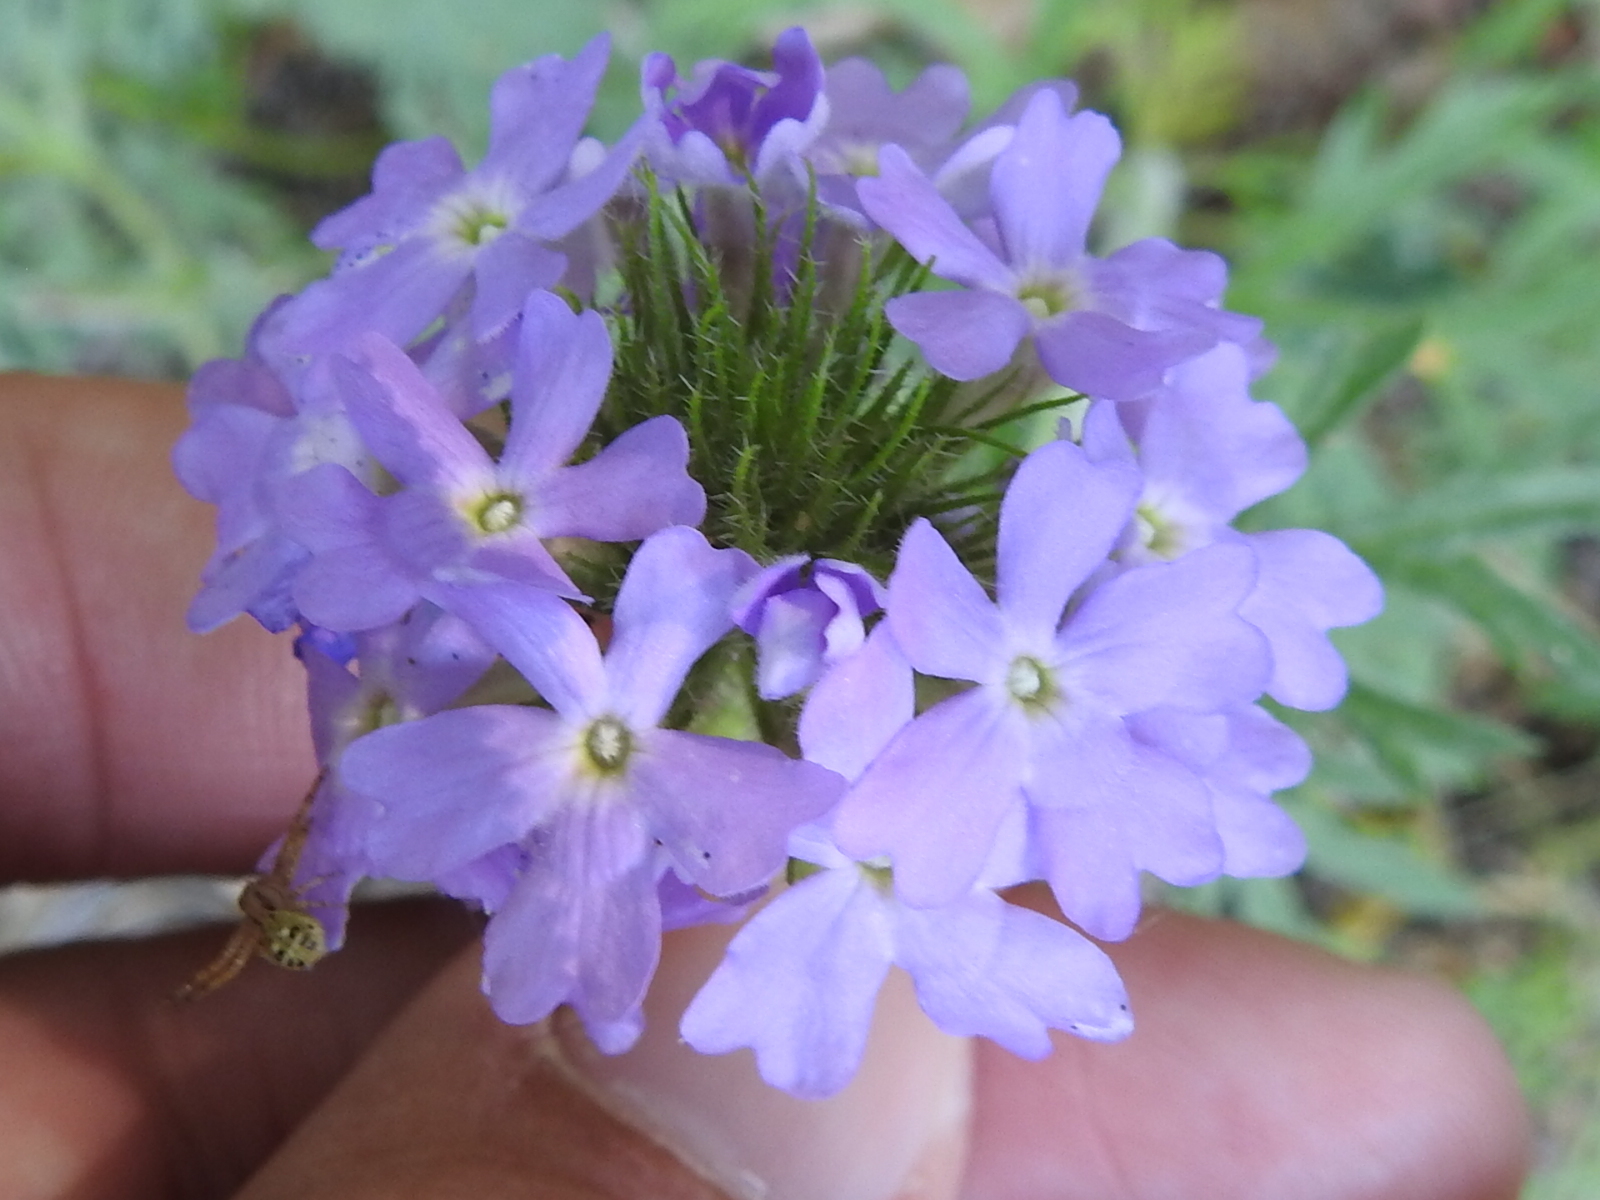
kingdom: Plantae
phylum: Tracheophyta
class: Magnoliopsida
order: Lamiales
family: Verbenaceae
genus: Verbena
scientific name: Verbena bipinnatifida
